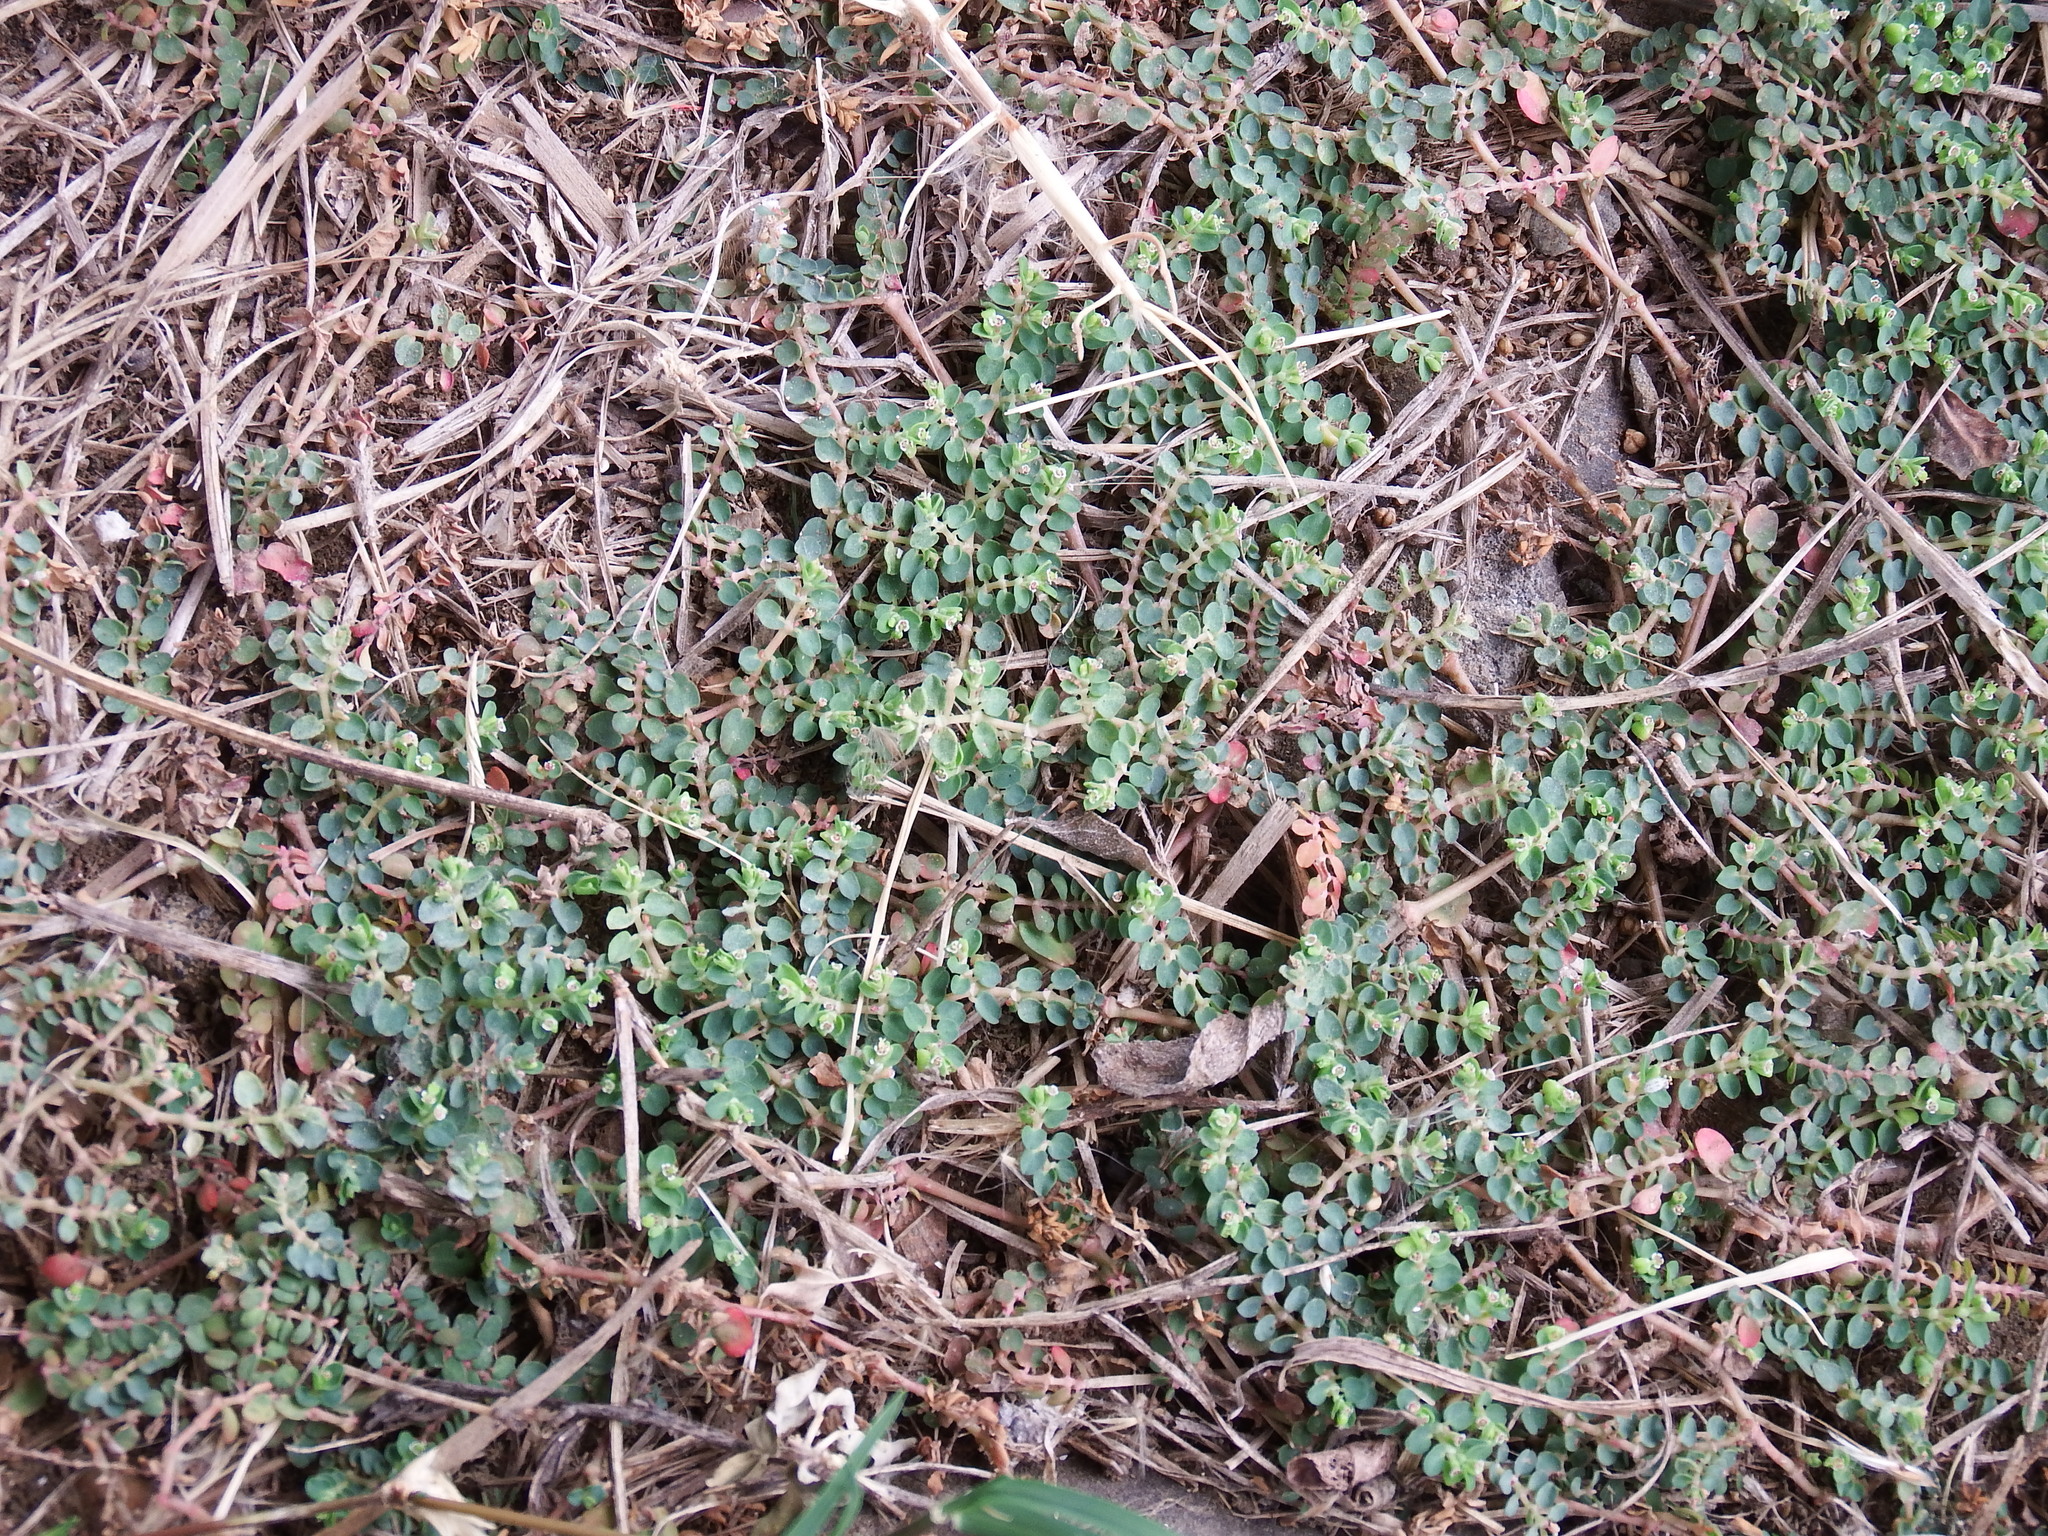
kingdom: Plantae
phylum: Tracheophyta
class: Magnoliopsida
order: Malpighiales
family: Euphorbiaceae
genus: Euphorbia
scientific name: Euphorbia serpens
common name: Matted sandmat
